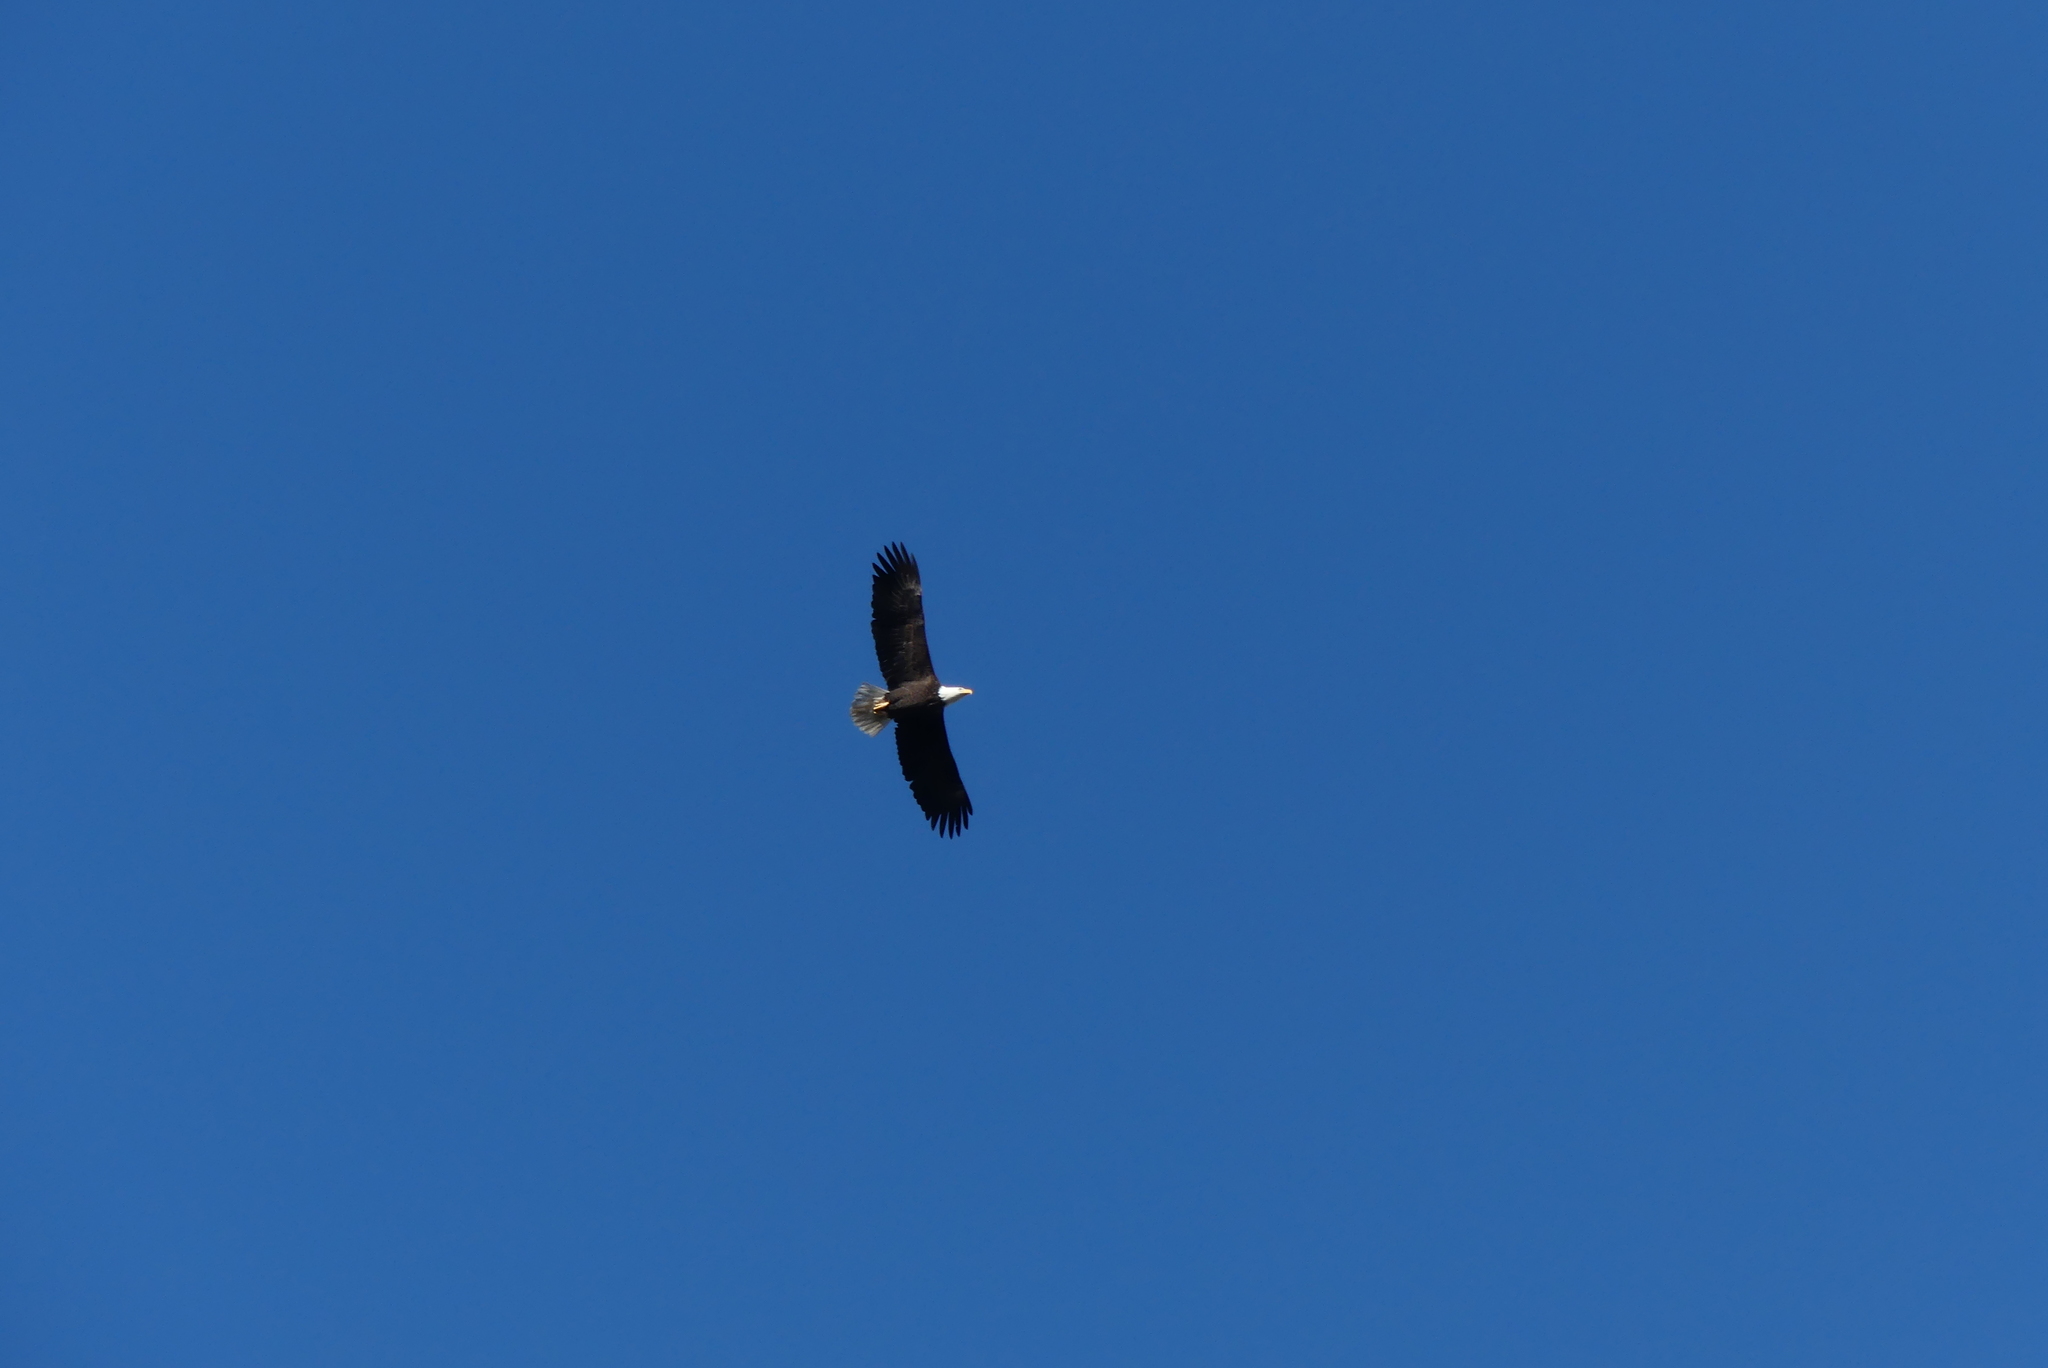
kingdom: Animalia
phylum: Chordata
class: Aves
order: Accipitriformes
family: Accipitridae
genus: Haliaeetus
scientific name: Haliaeetus leucocephalus
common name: Bald eagle
